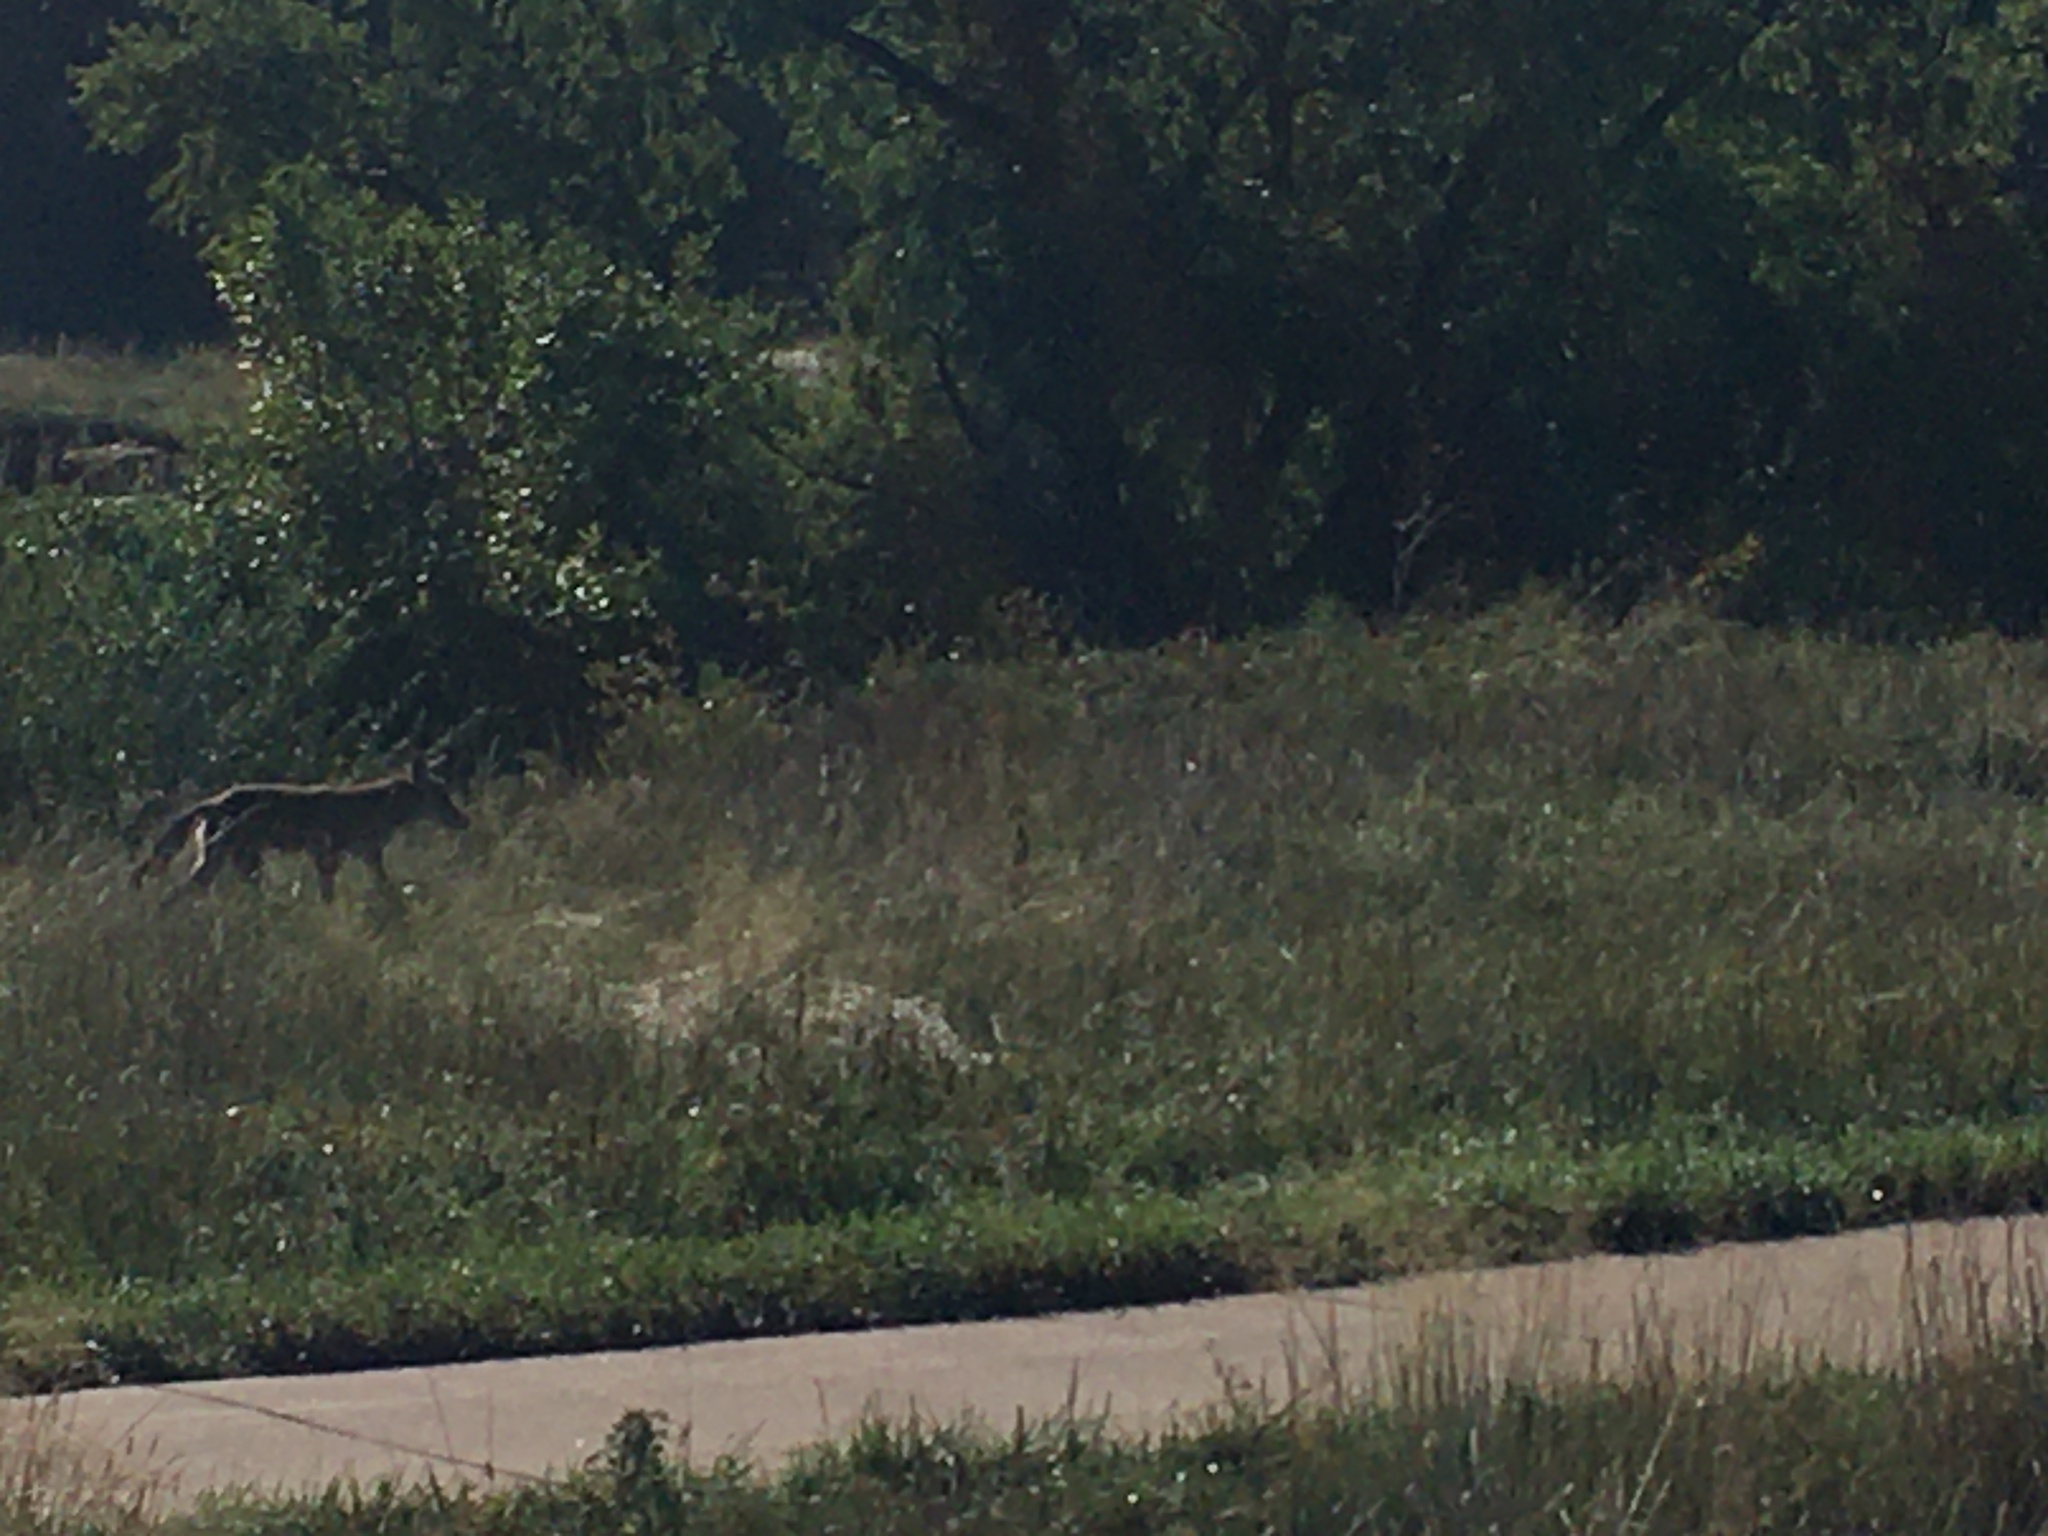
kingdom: Animalia
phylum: Chordata
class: Mammalia
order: Carnivora
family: Canidae
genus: Canis
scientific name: Canis latrans
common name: Coyote
